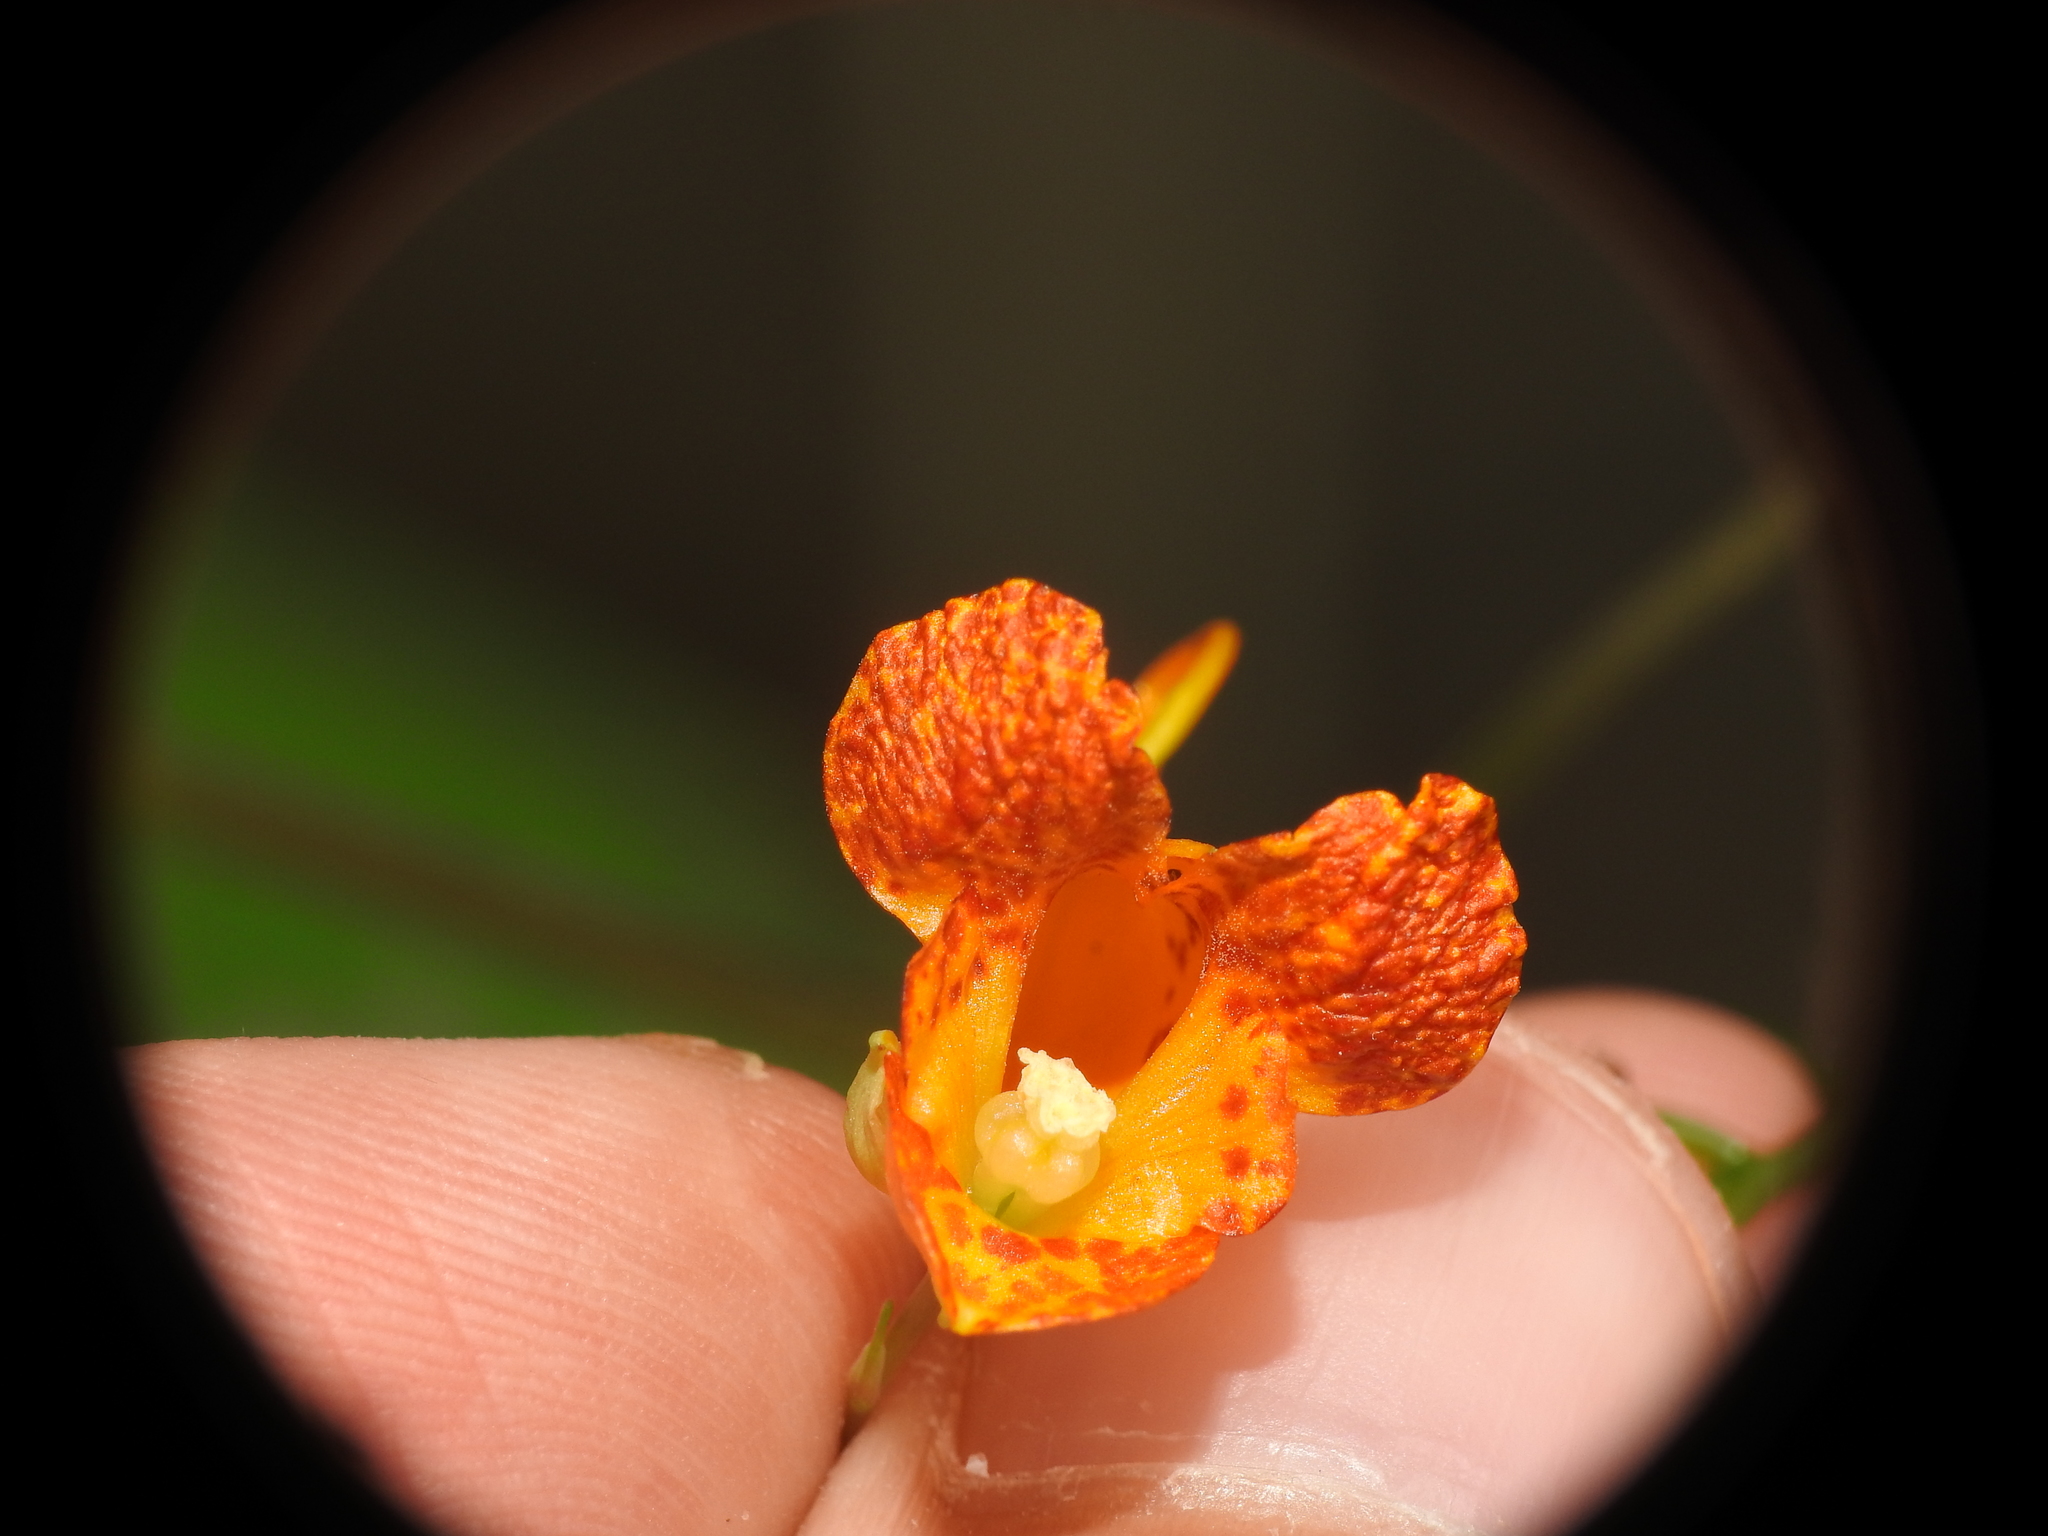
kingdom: Plantae
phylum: Tracheophyta
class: Magnoliopsida
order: Ericales
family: Balsaminaceae
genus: Impatiens
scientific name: Impatiens capensis
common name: Orange balsam
